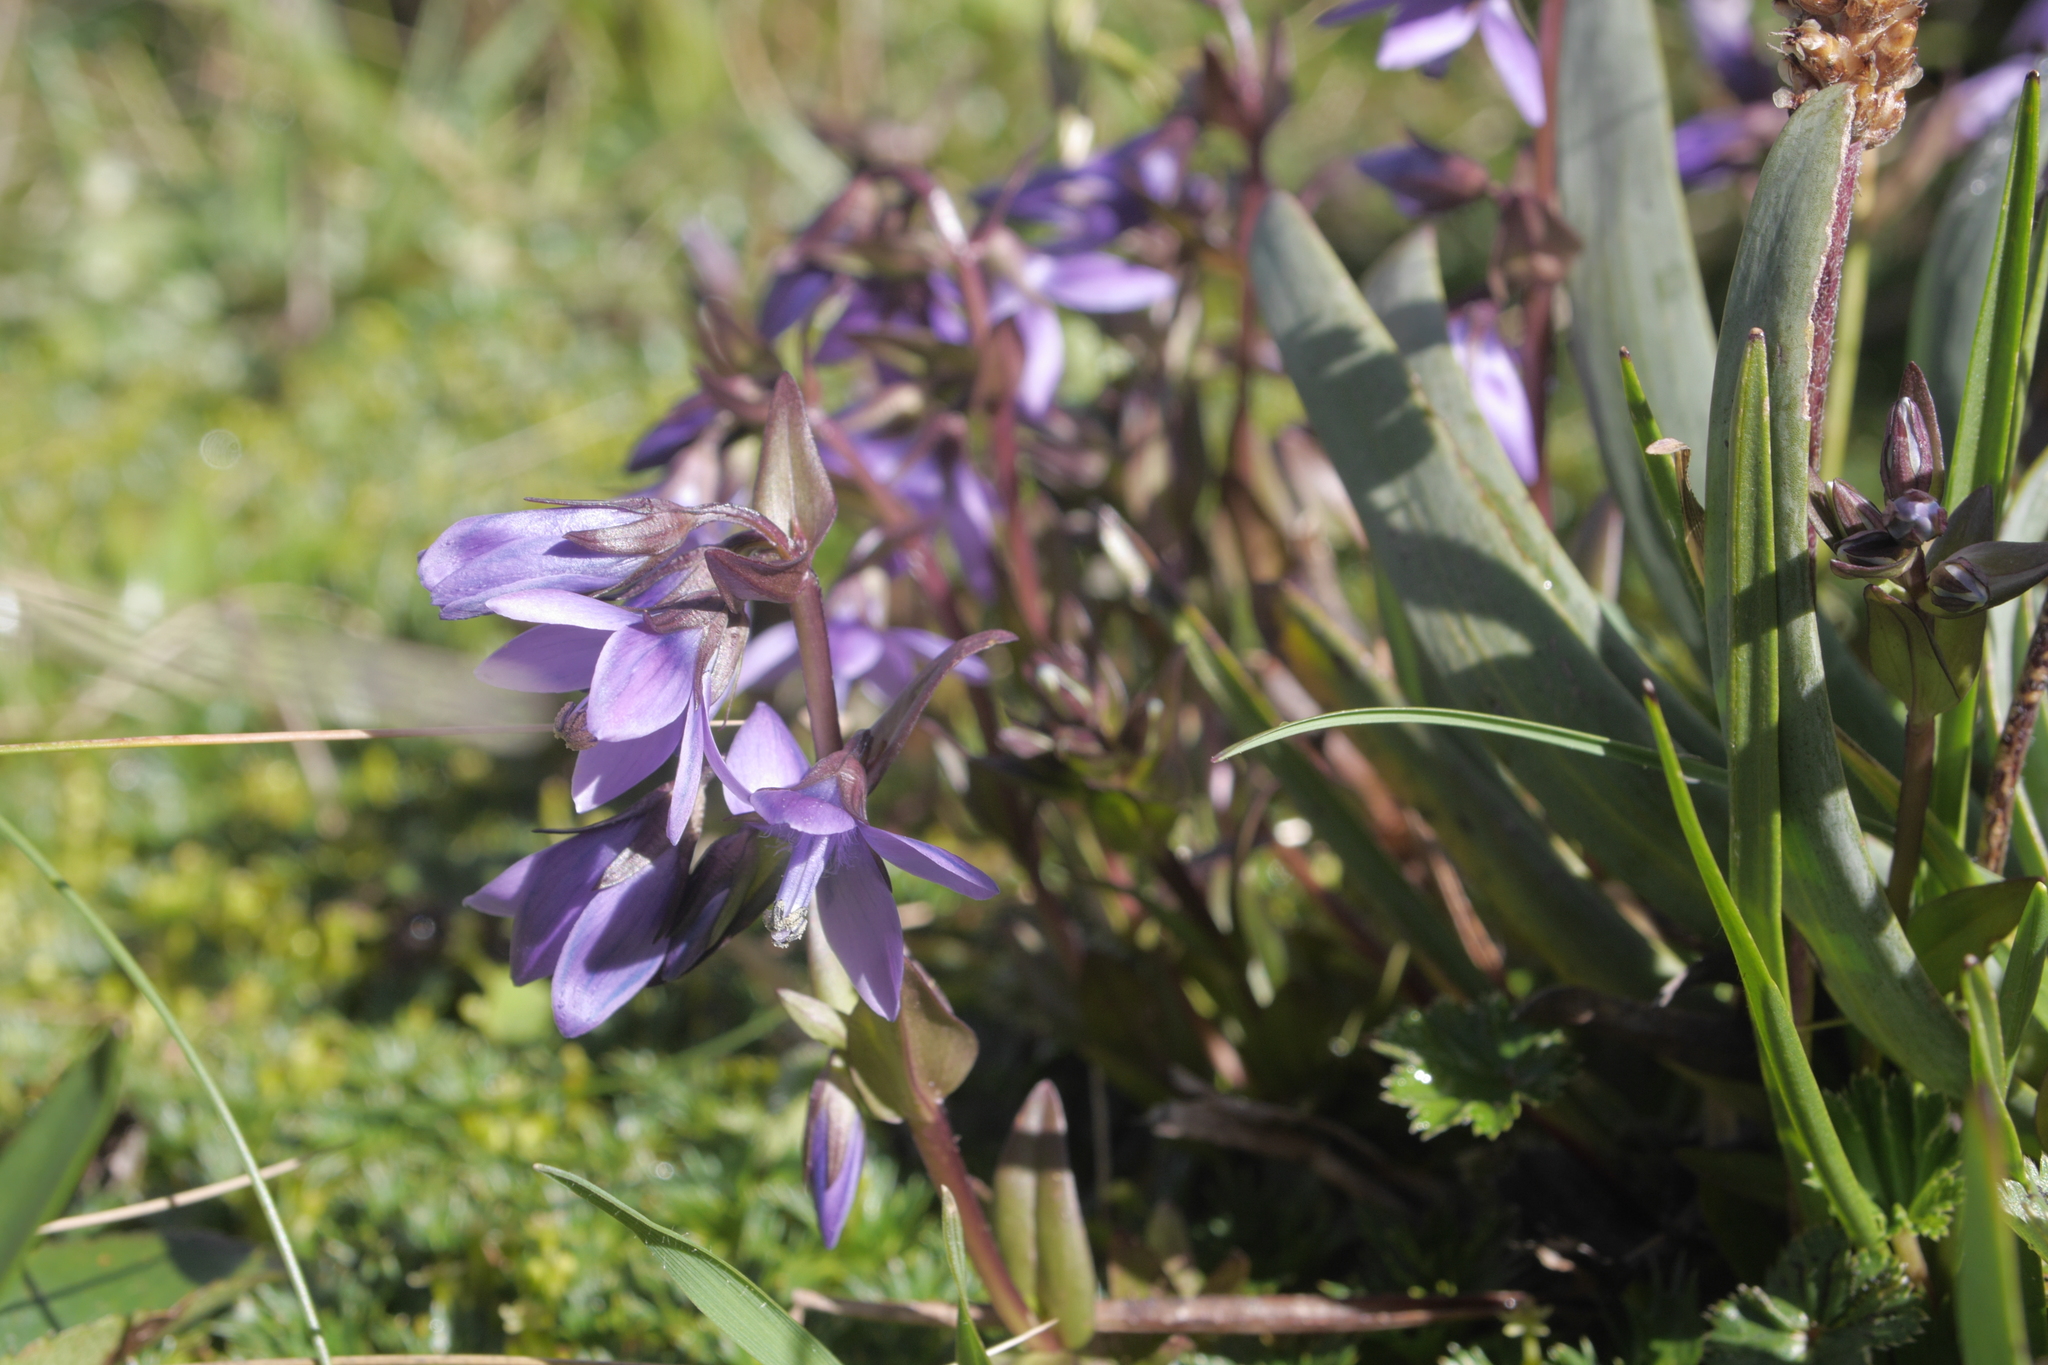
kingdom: Plantae
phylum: Tracheophyta
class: Magnoliopsida
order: Gentianales
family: Gentianaceae
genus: Gentianella
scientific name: Gentianella rapunculoides
